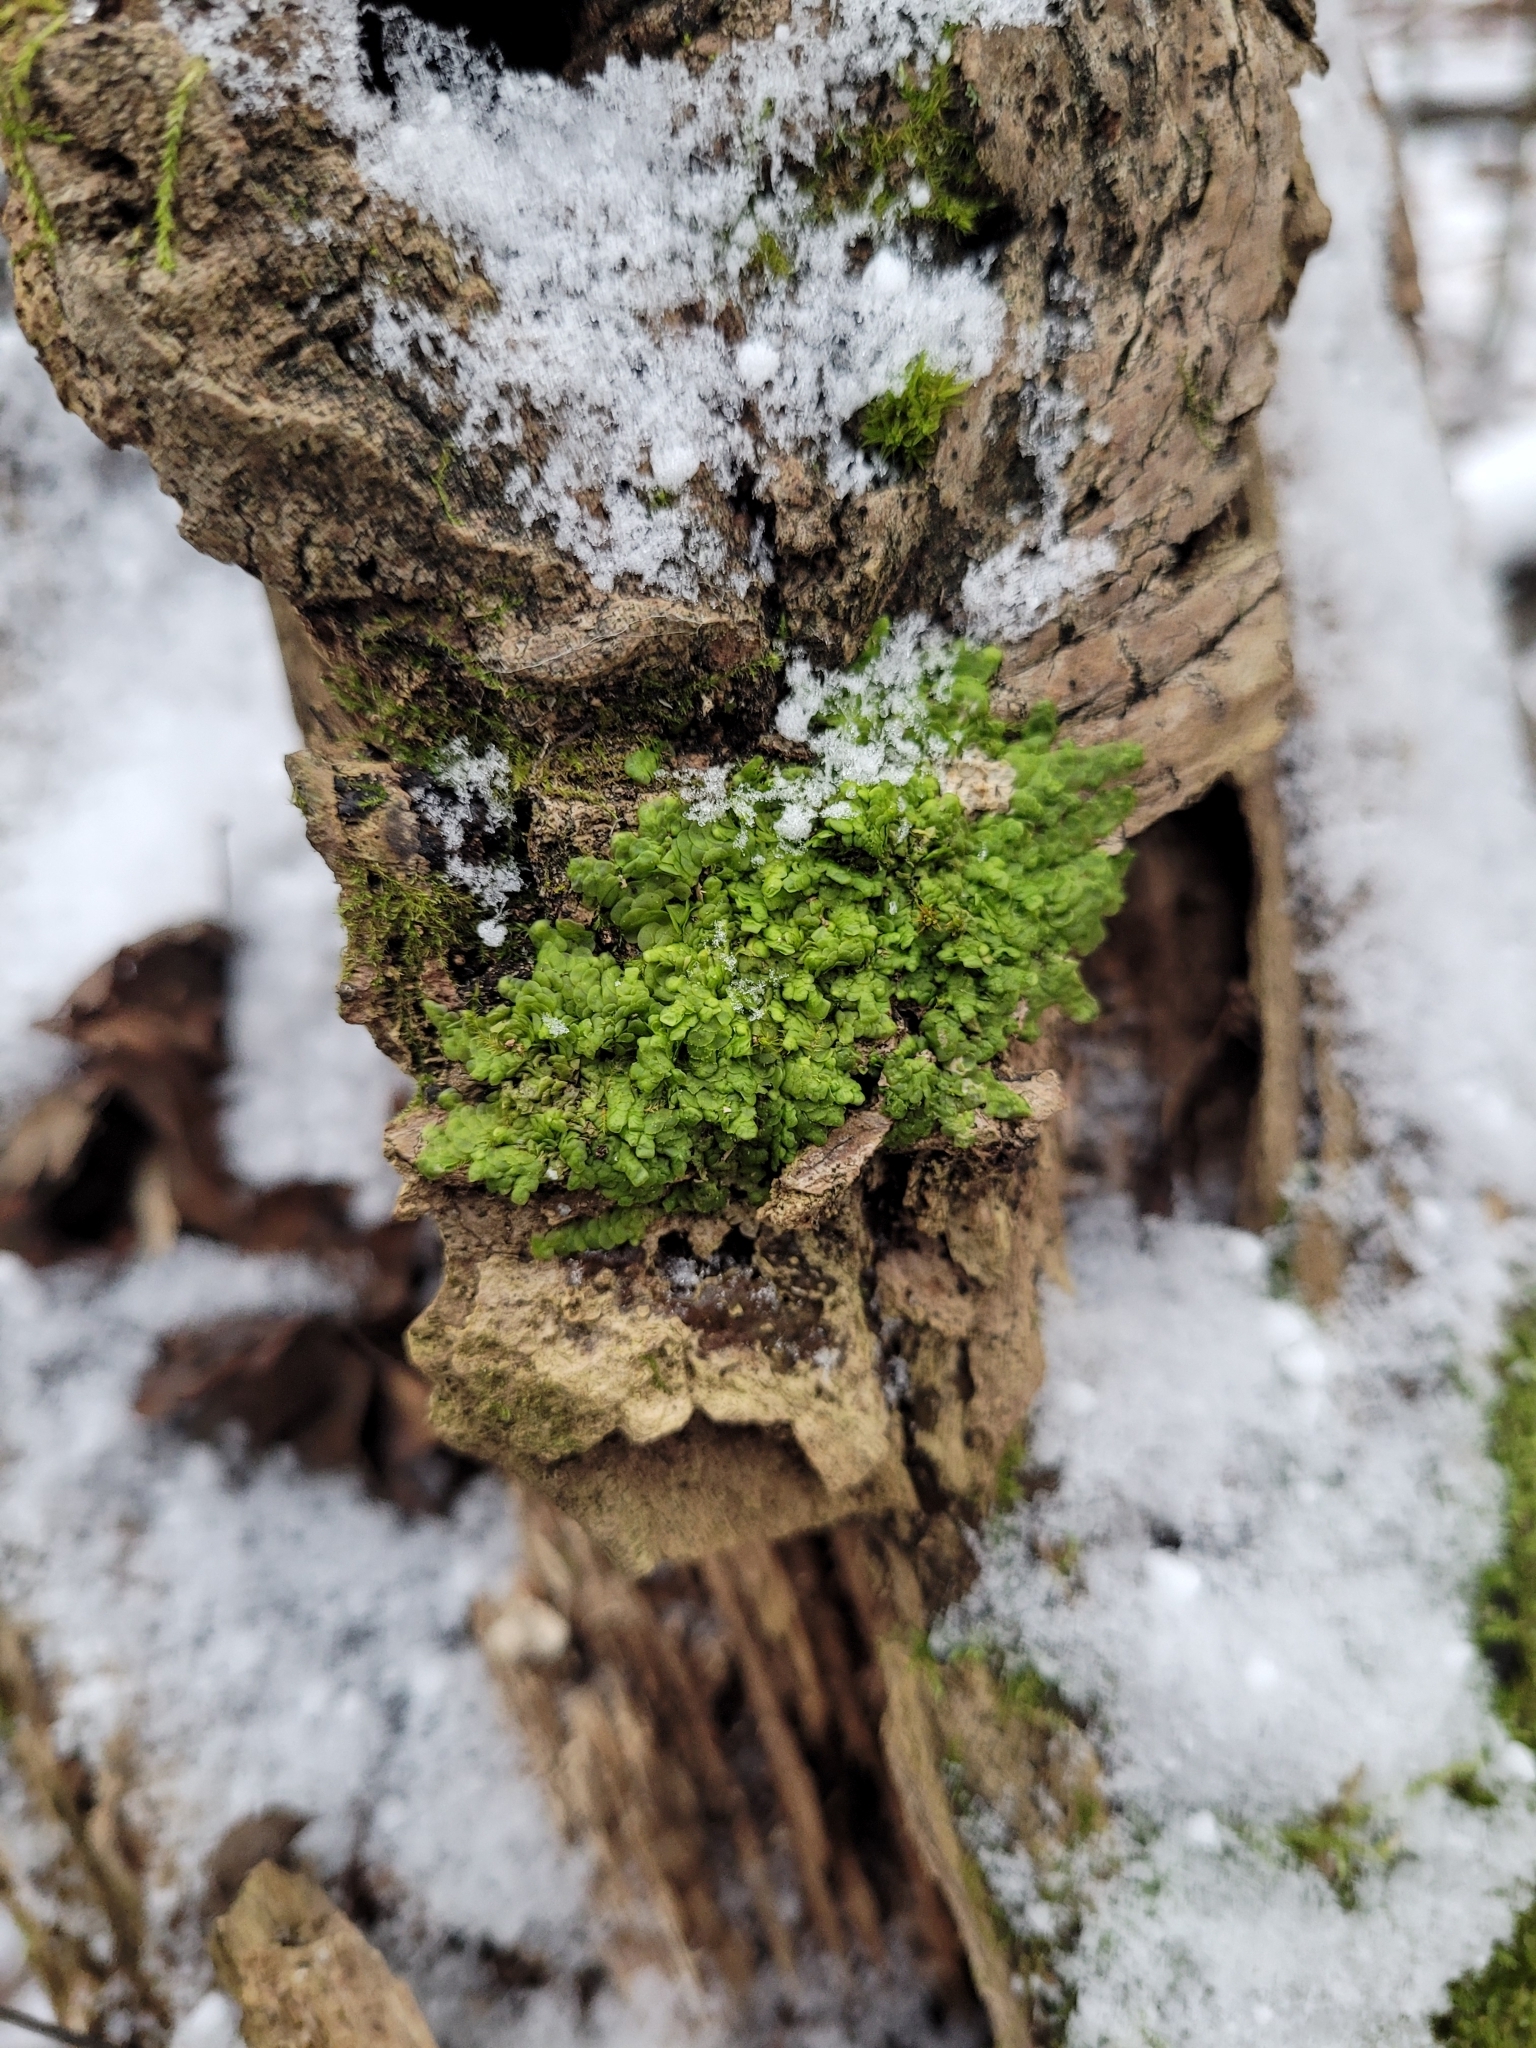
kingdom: Plantae
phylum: Marchantiophyta
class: Jungermanniopsida
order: Porellales
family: Radulaceae
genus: Radula
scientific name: Radula complanata
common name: Flat-leaved scalewort
